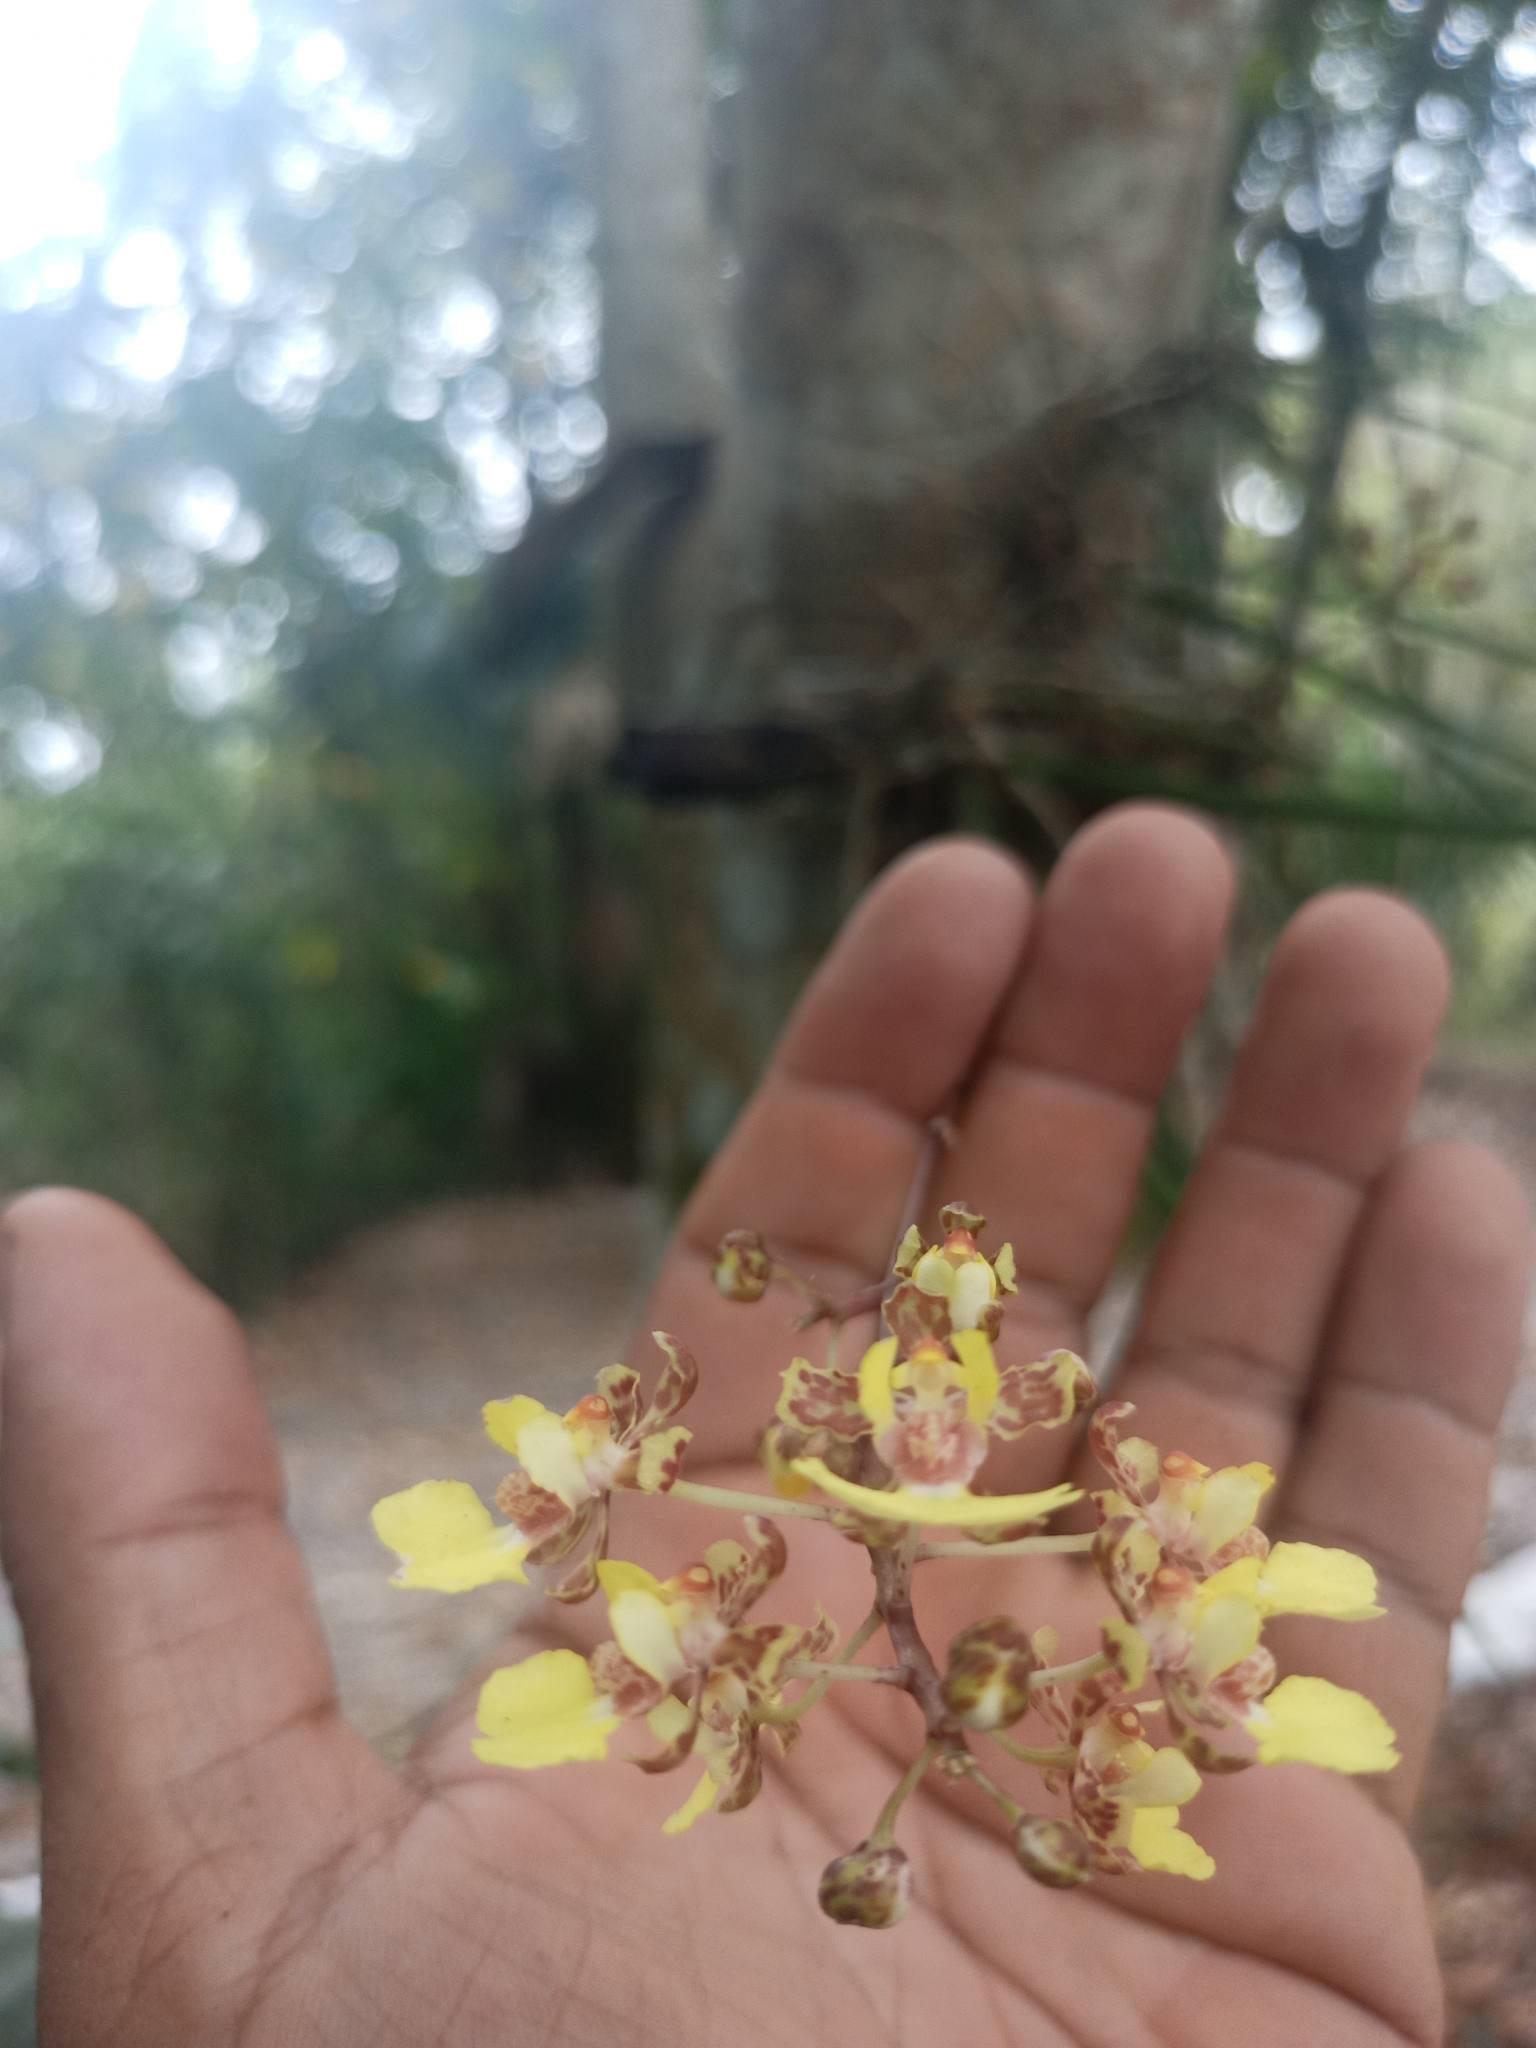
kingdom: Plantae
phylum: Tracheophyta
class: Liliopsida
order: Asparagales
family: Orchidaceae
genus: Trichocentrum
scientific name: Trichocentrum ascendens
